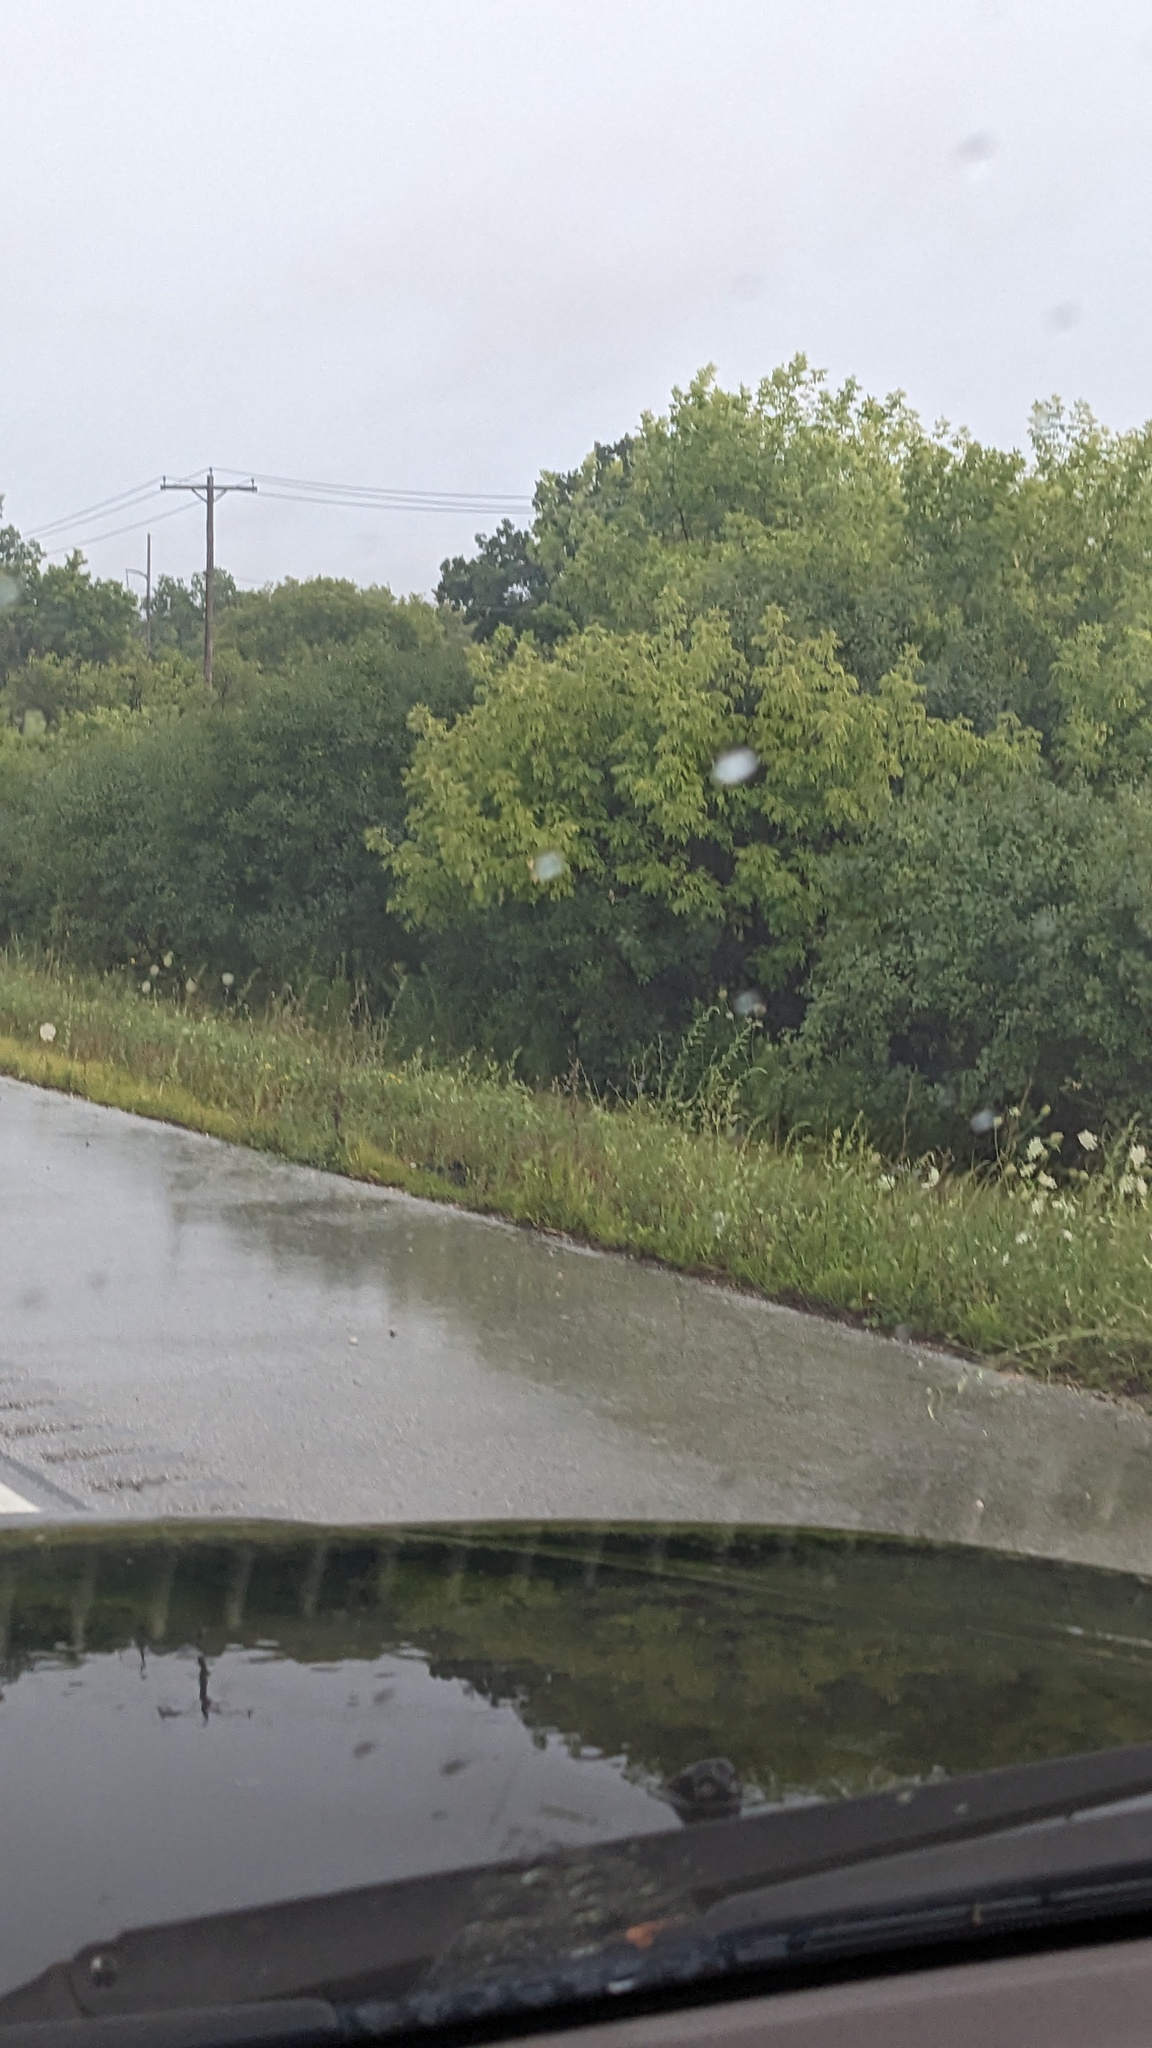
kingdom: Plantae
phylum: Tracheophyta
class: Magnoliopsida
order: Sapindales
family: Sapindaceae
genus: Acer
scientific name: Acer negundo
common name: Ashleaf maple
